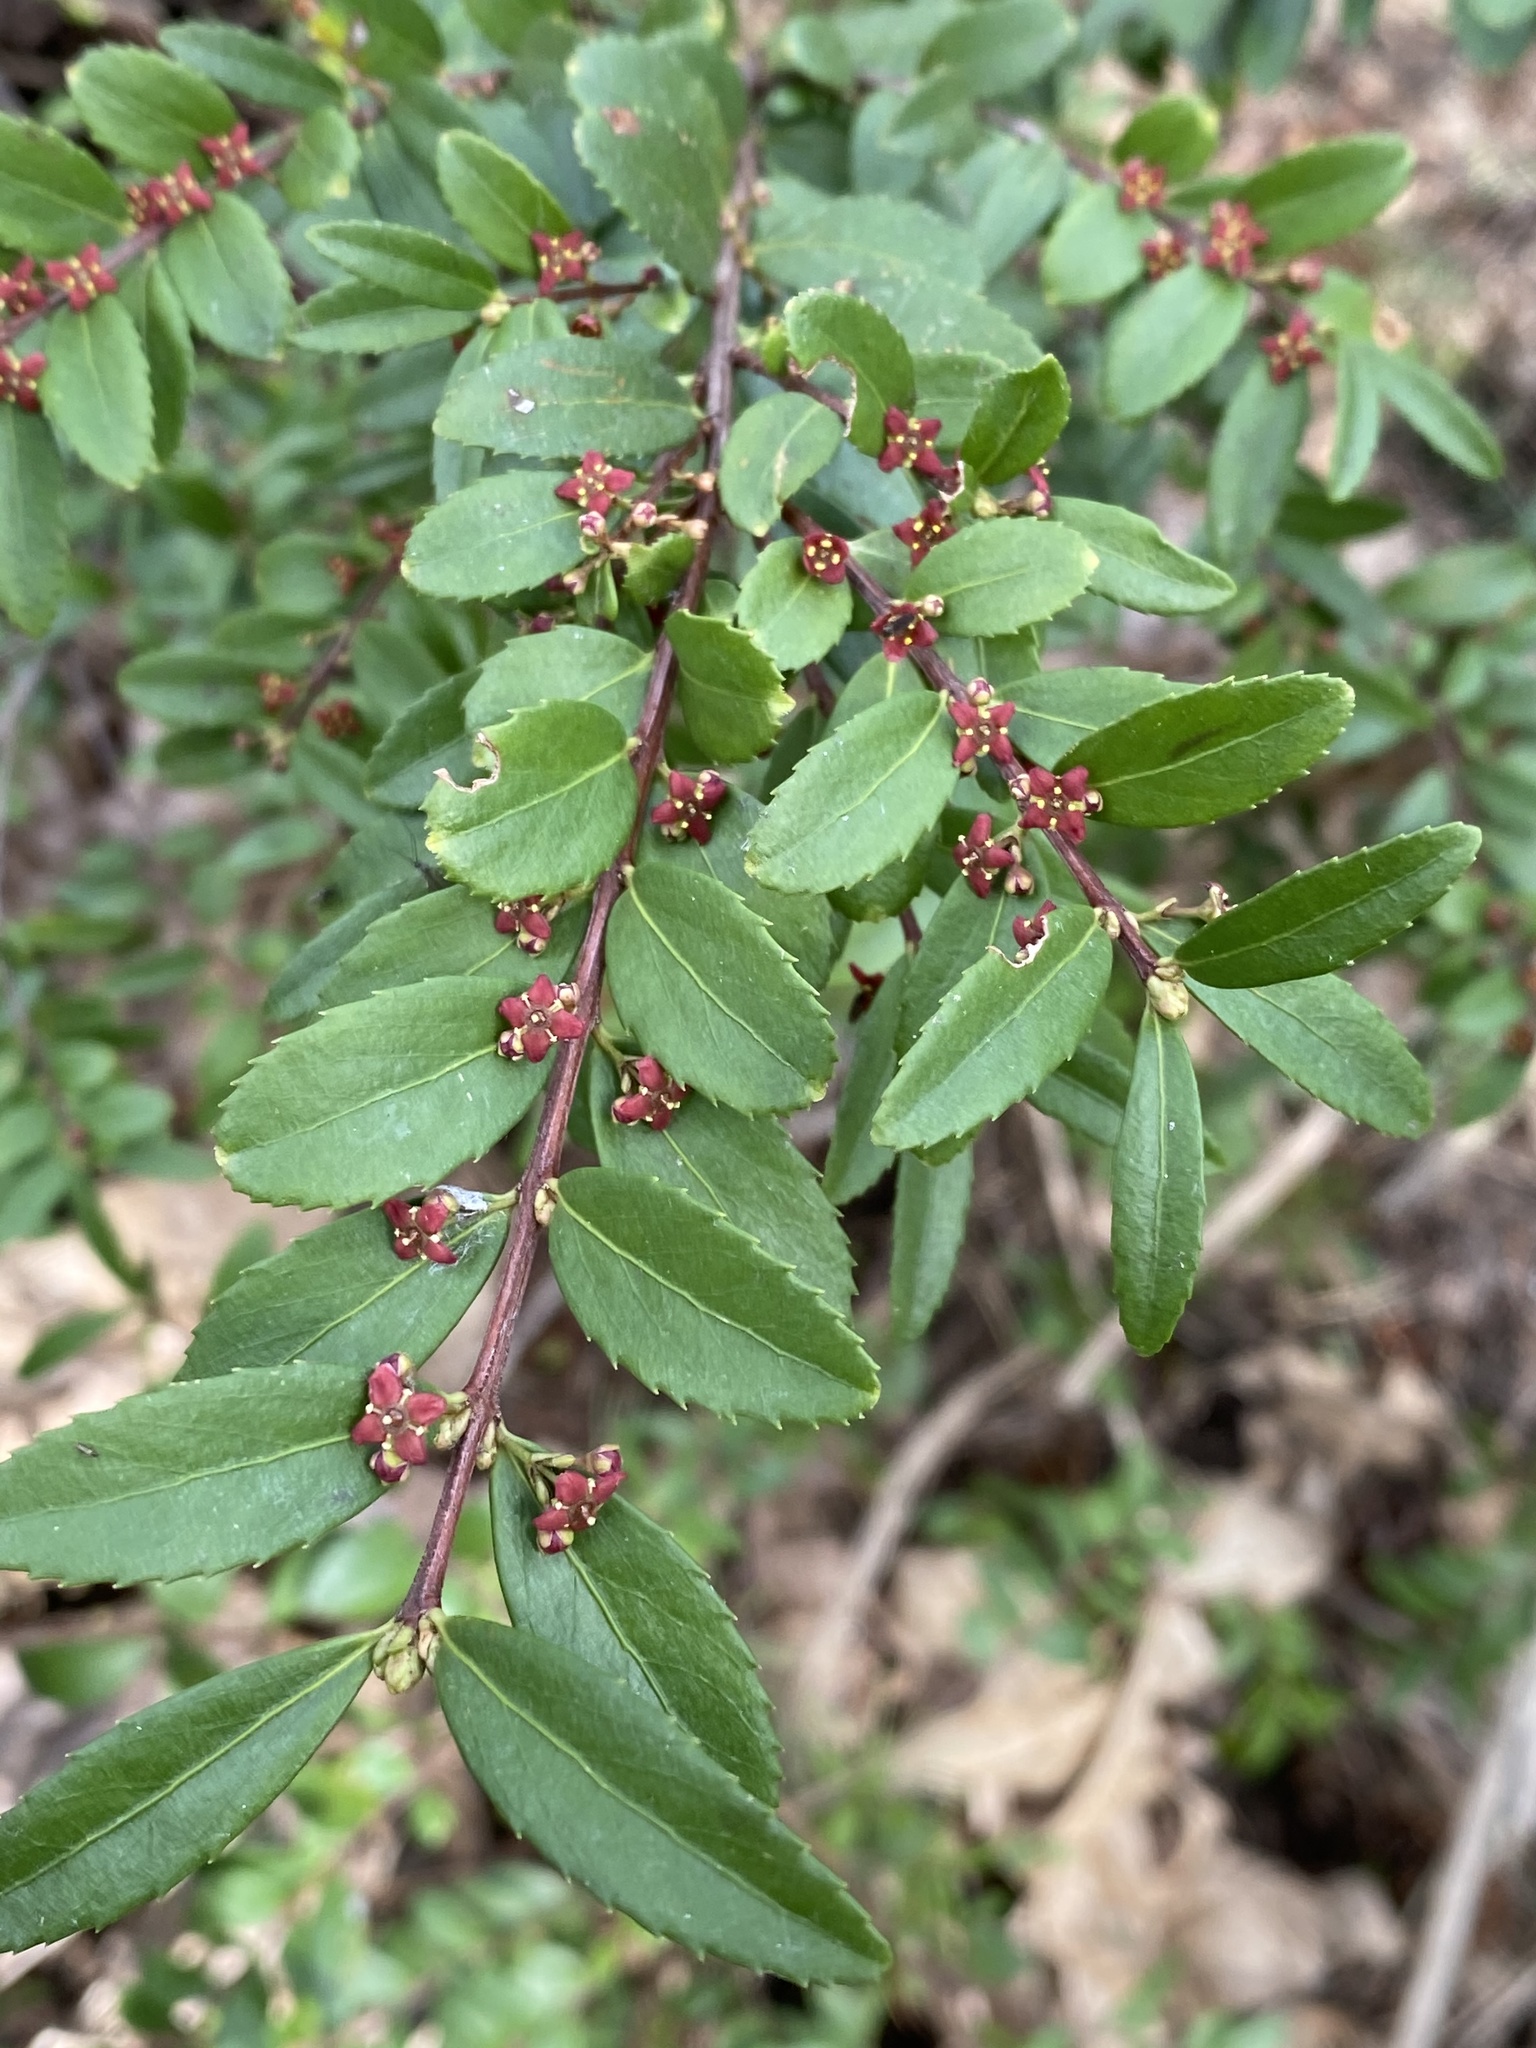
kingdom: Plantae
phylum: Tracheophyta
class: Magnoliopsida
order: Celastrales
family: Celastraceae
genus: Paxistima
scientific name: Paxistima myrsinites
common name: Mountain-lover
